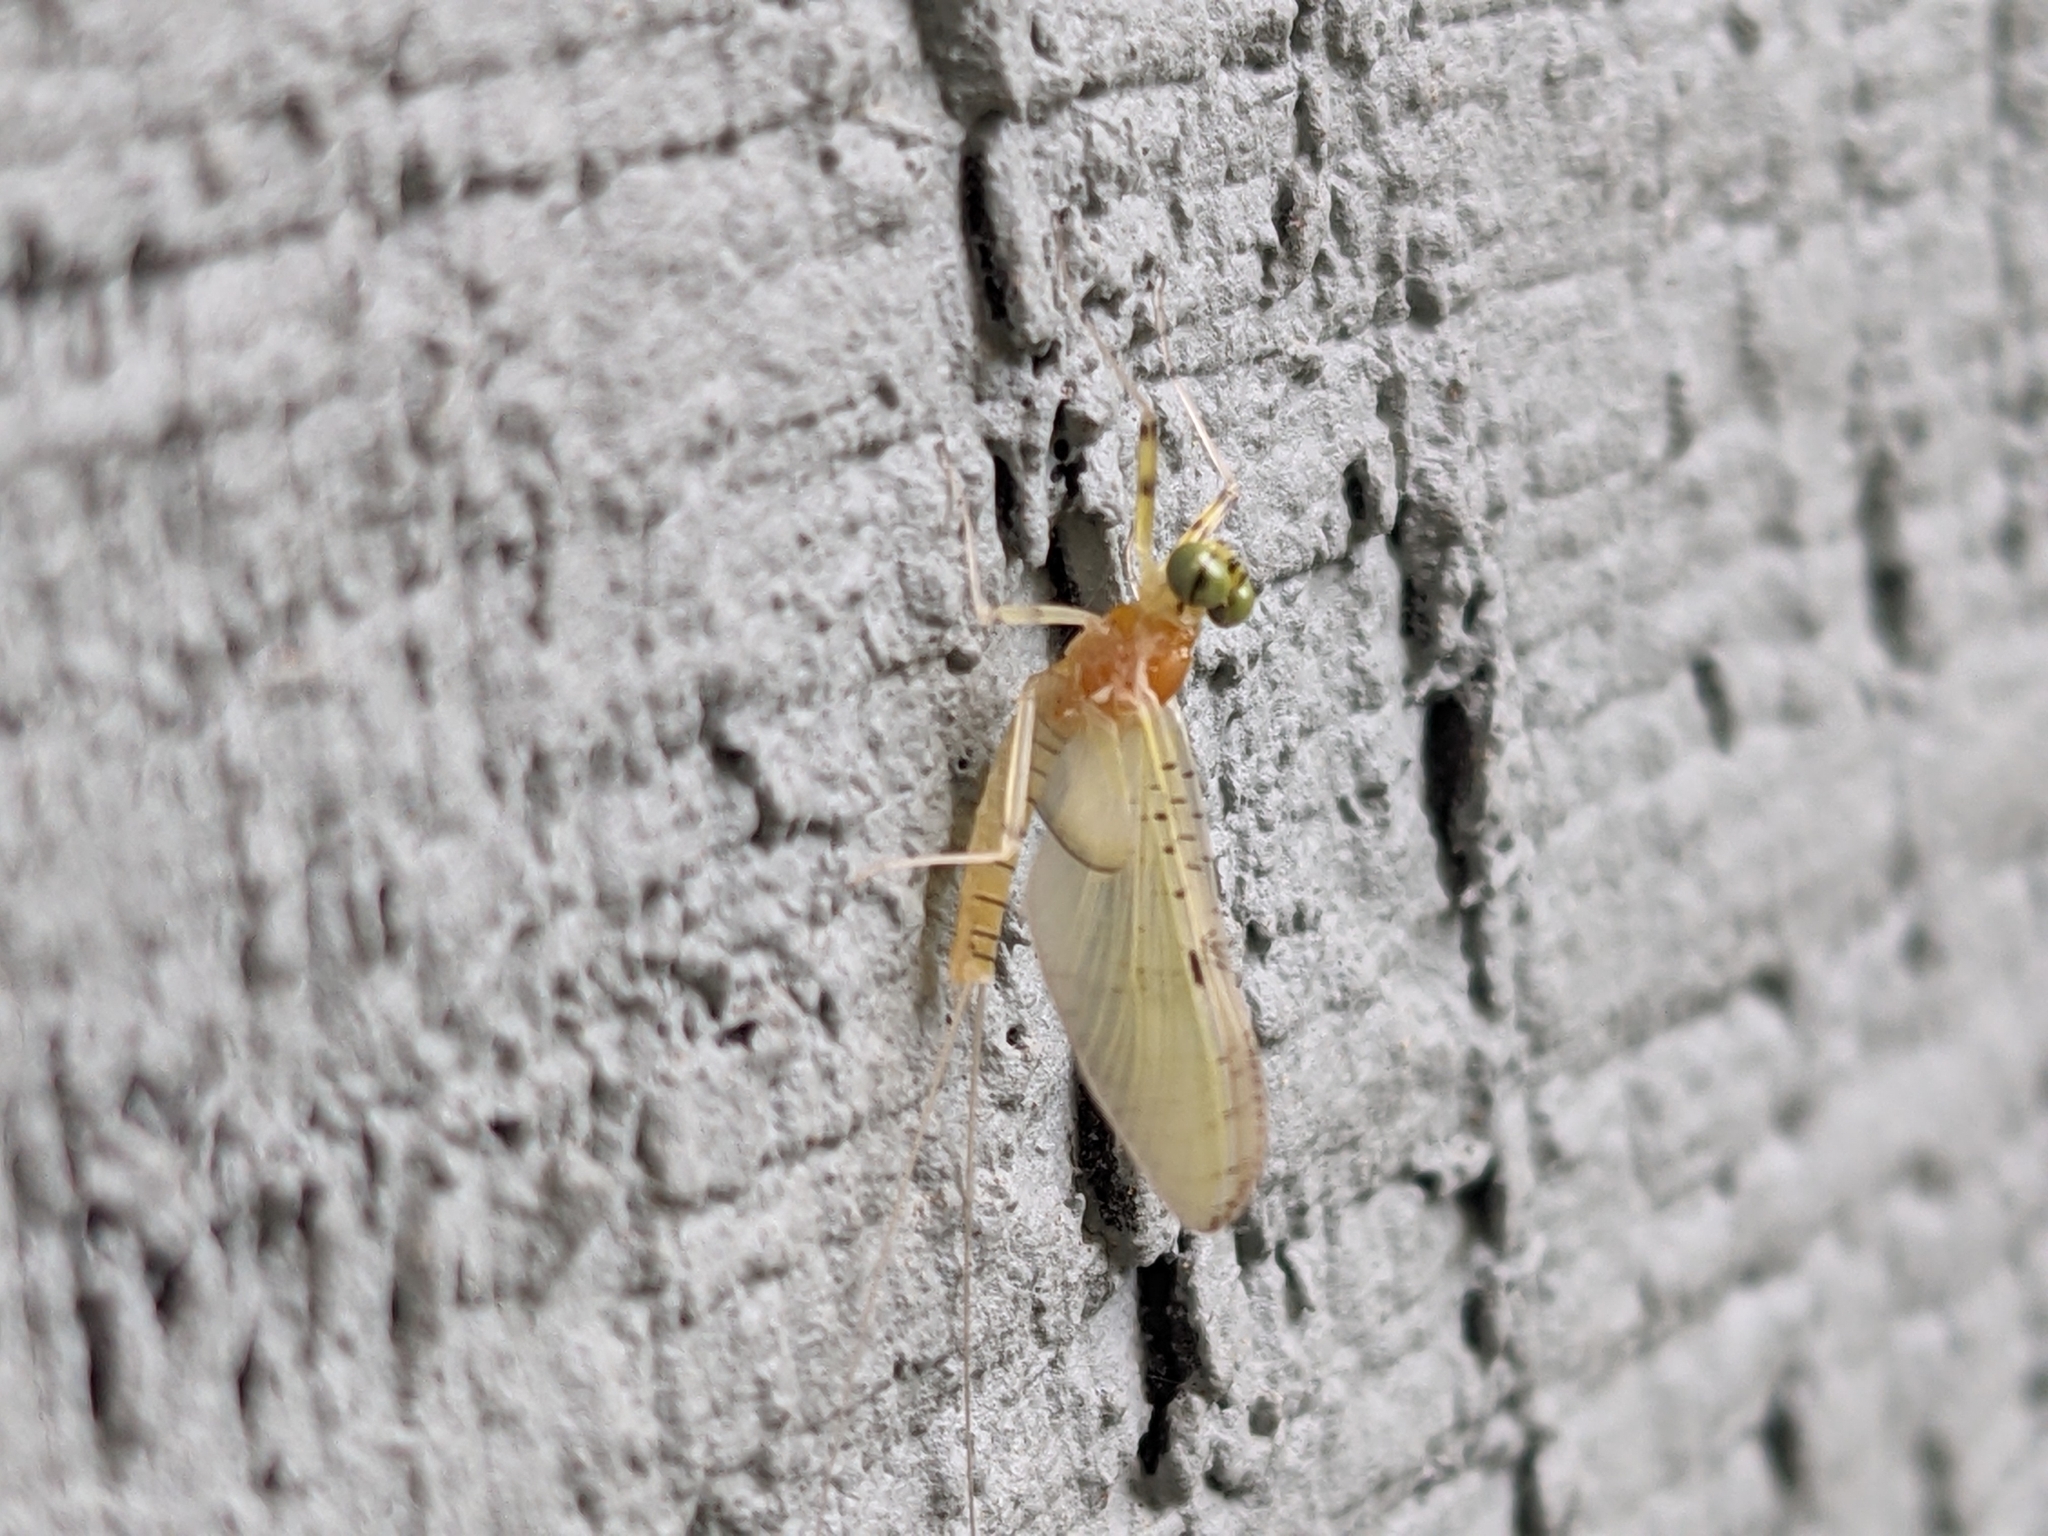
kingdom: Animalia
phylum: Arthropoda
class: Insecta
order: Ephemeroptera
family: Heptageniidae
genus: Stenacron
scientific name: Stenacron interpunctatum
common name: Orange cahill
